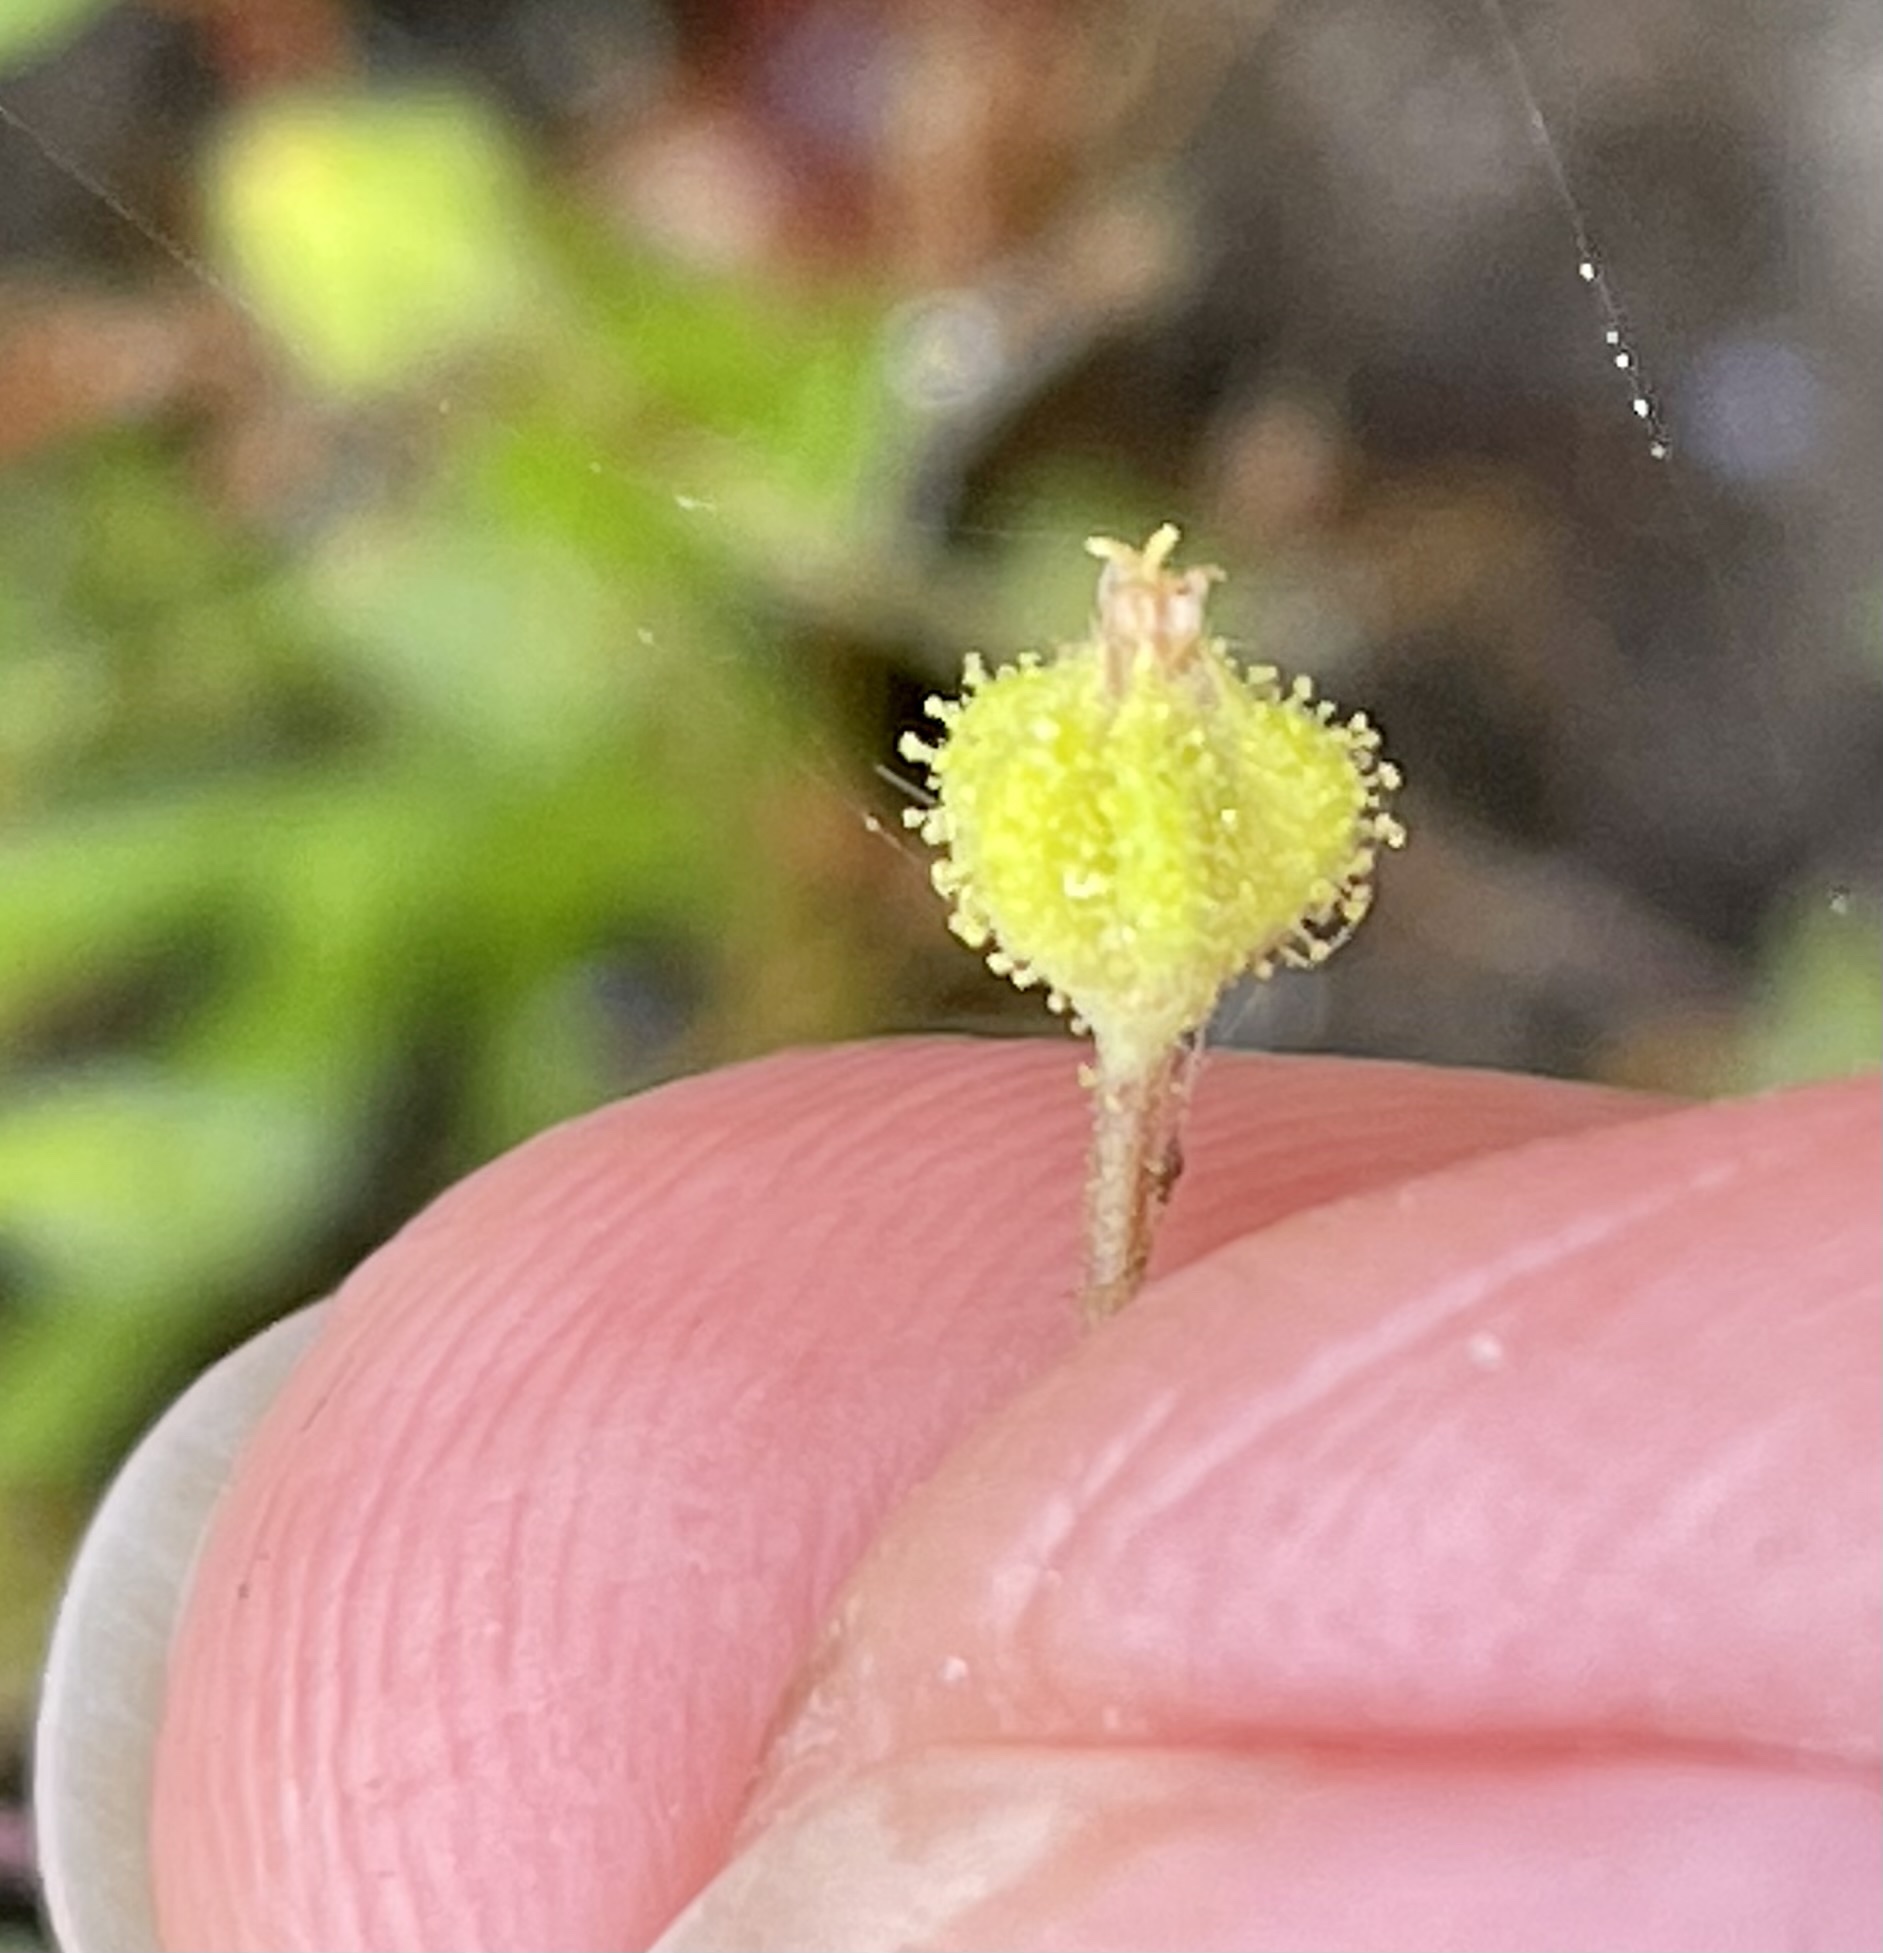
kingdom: Plantae
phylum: Tracheophyta
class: Magnoliopsida
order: Asterales
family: Asteraceae
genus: Madia
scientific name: Madia exigua
